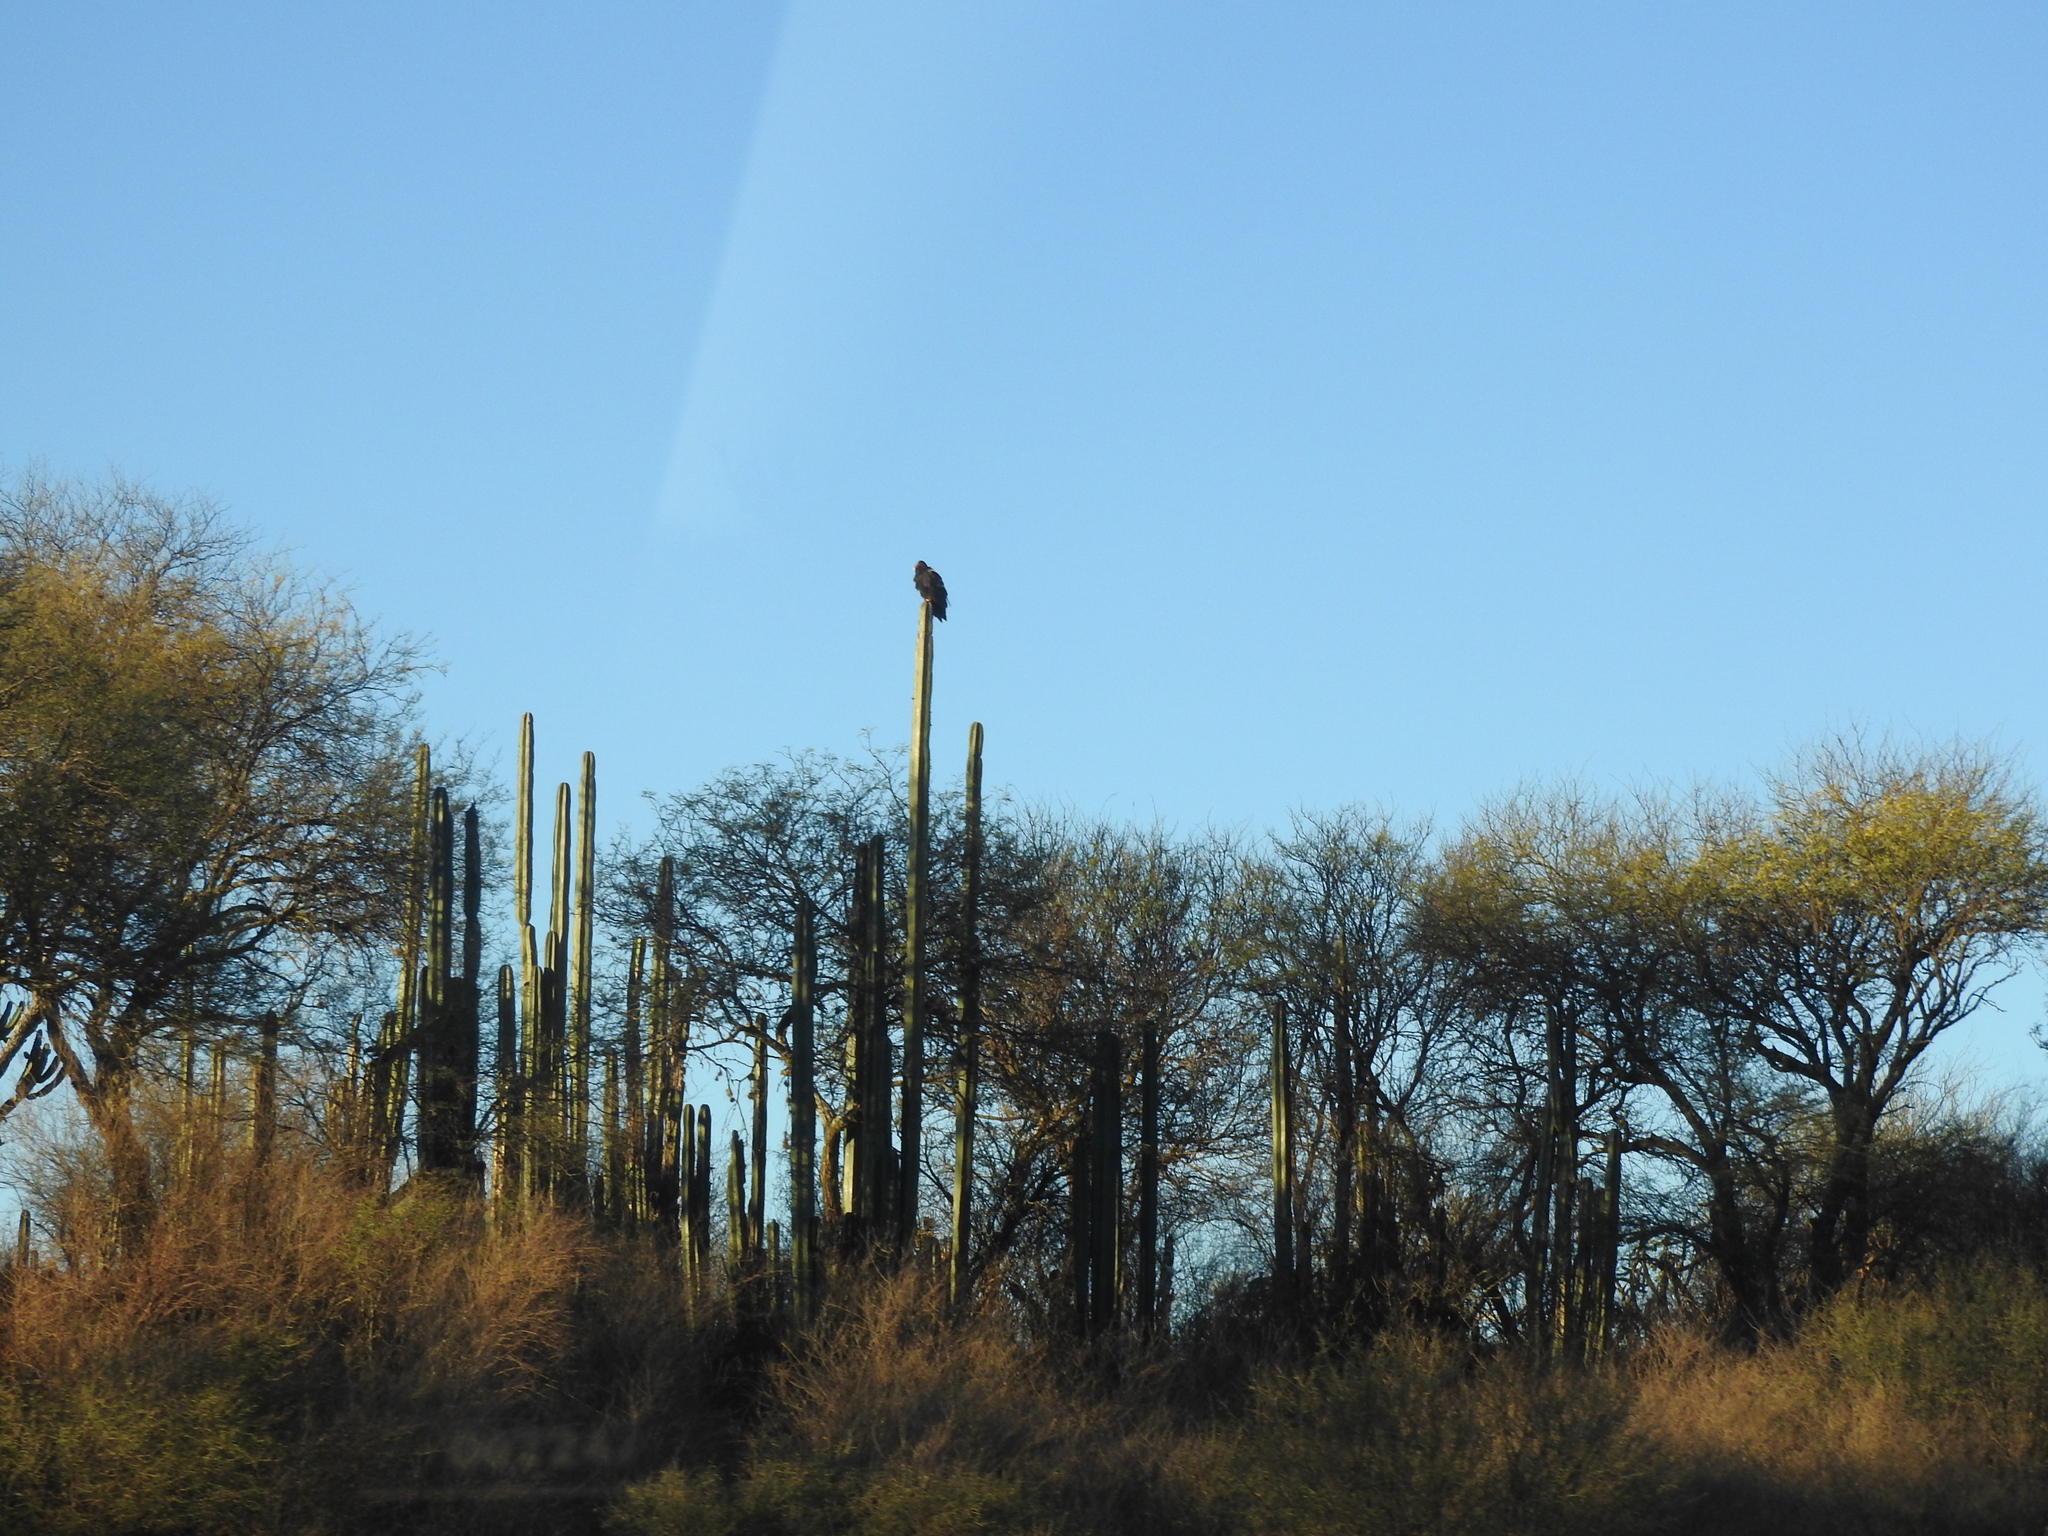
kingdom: Animalia
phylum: Chordata
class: Aves
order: Accipitriformes
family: Cathartidae
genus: Cathartes
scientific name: Cathartes aura
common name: Turkey vulture
